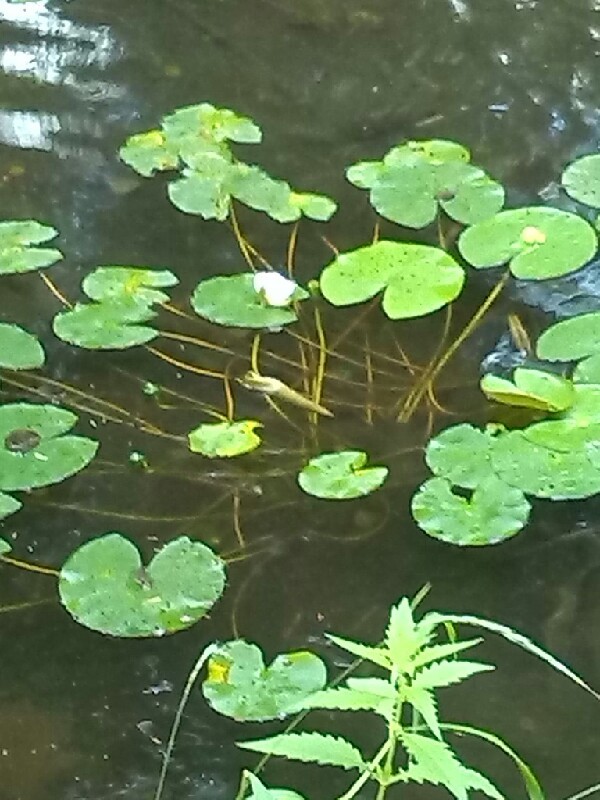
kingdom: Plantae
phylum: Tracheophyta
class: Magnoliopsida
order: Nymphaeales
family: Nymphaeaceae
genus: Nymphaea
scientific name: Nymphaea candida
